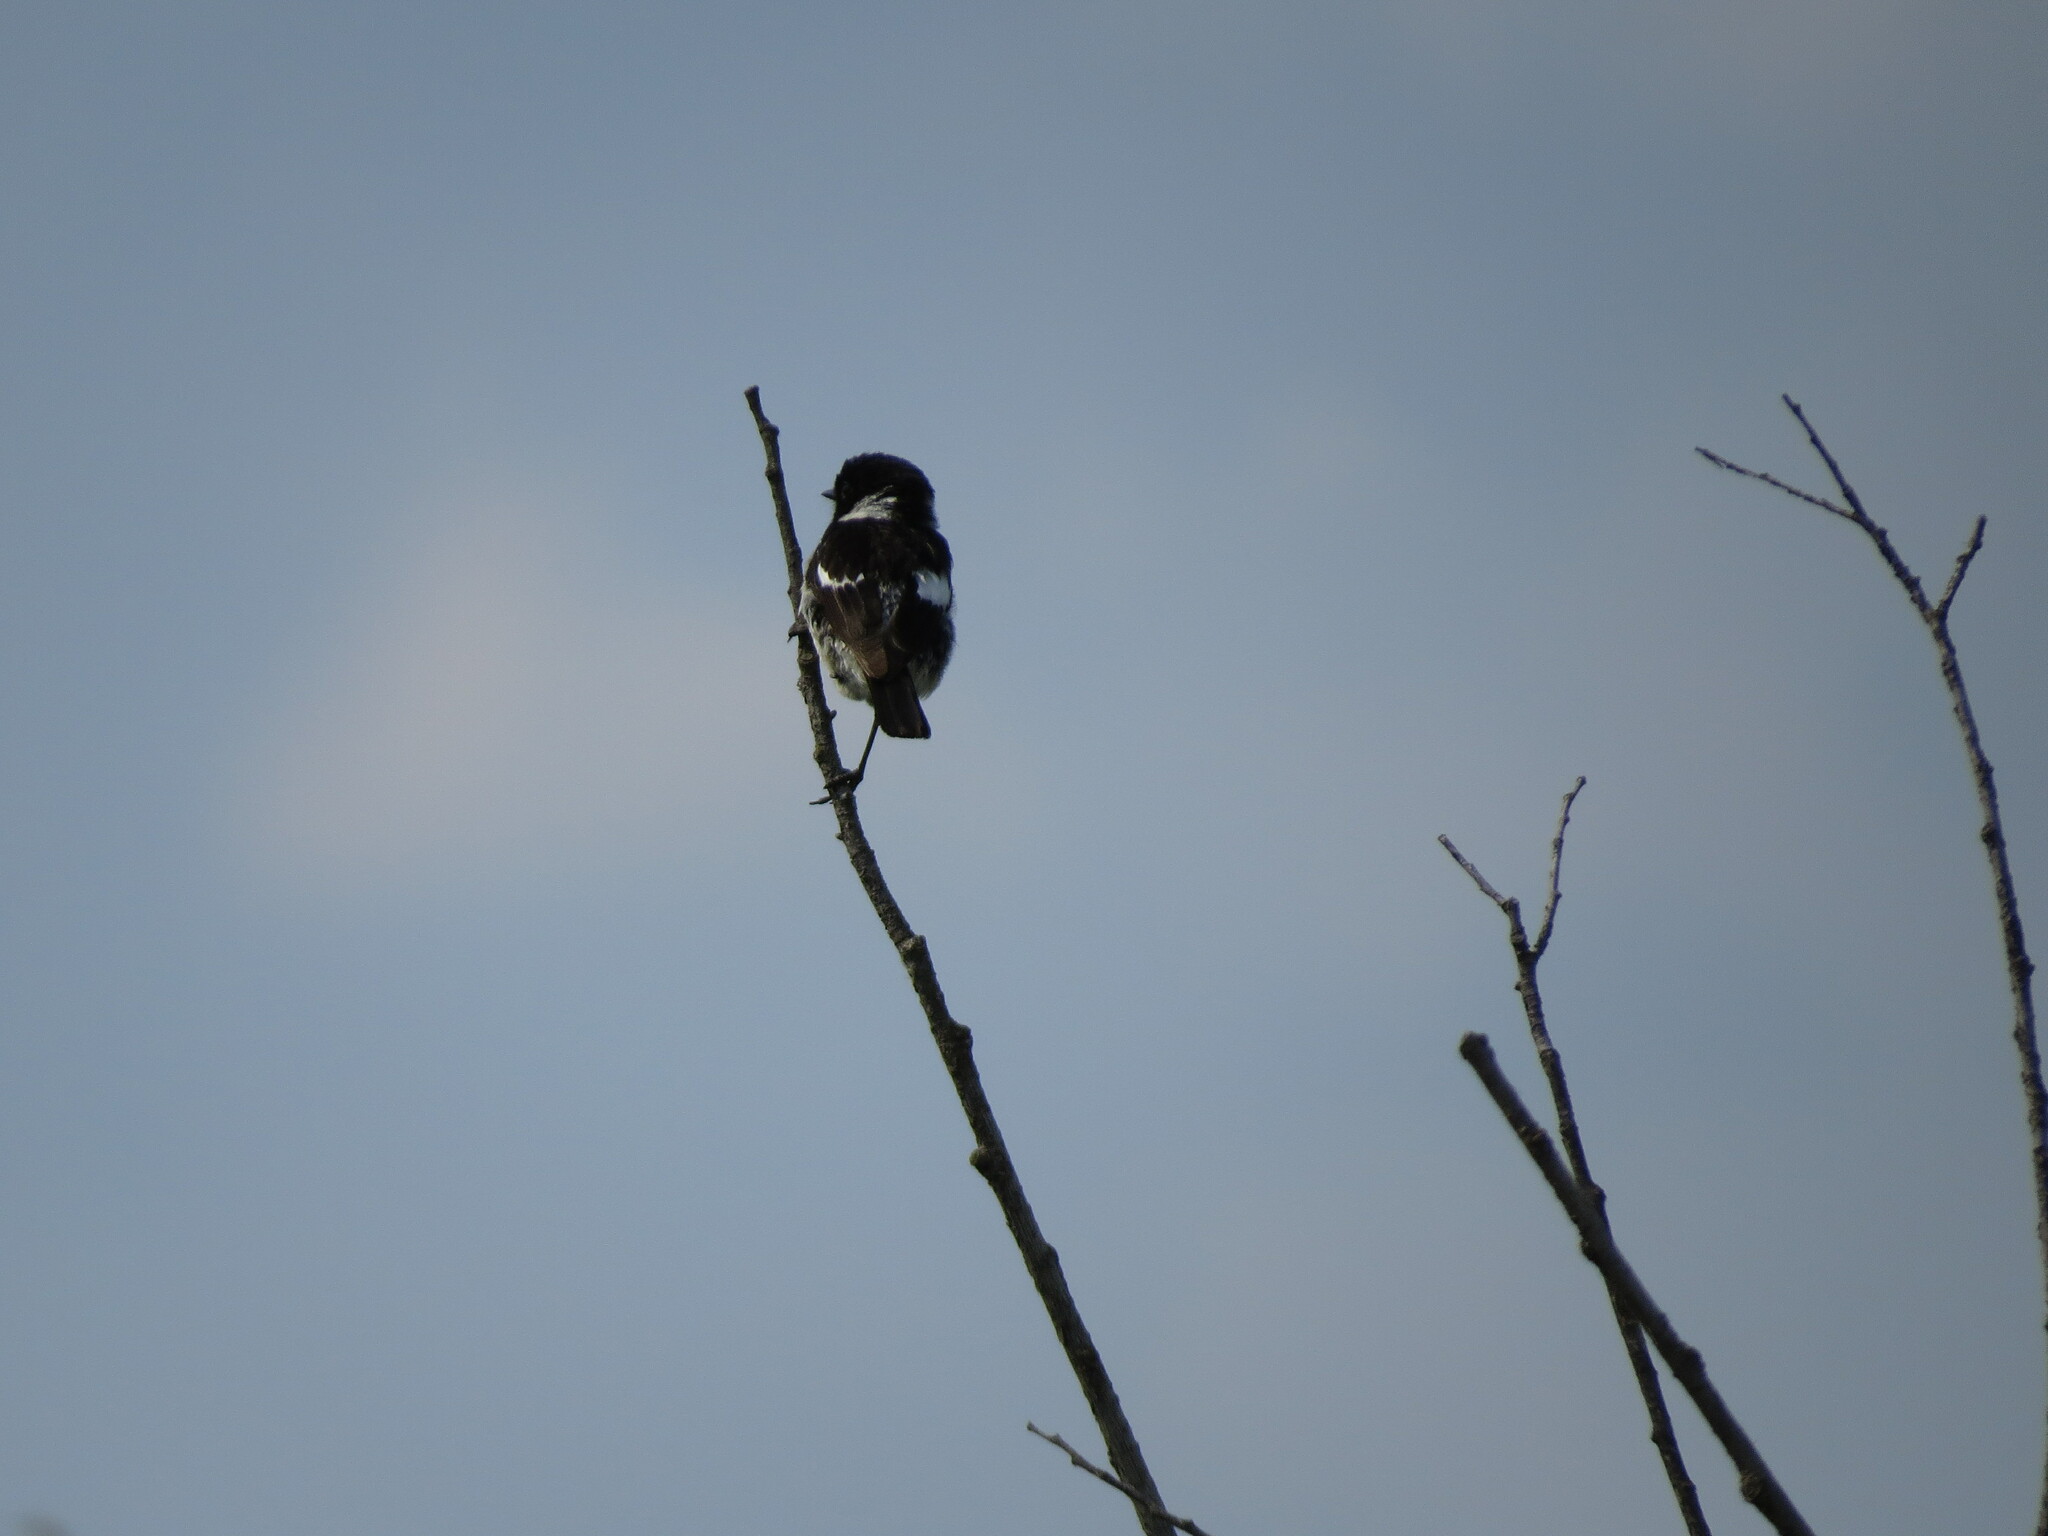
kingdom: Animalia
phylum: Chordata
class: Aves
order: Passeriformes
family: Muscicapidae
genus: Saxicola
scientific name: Saxicola maurus
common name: Siberian stonechat
